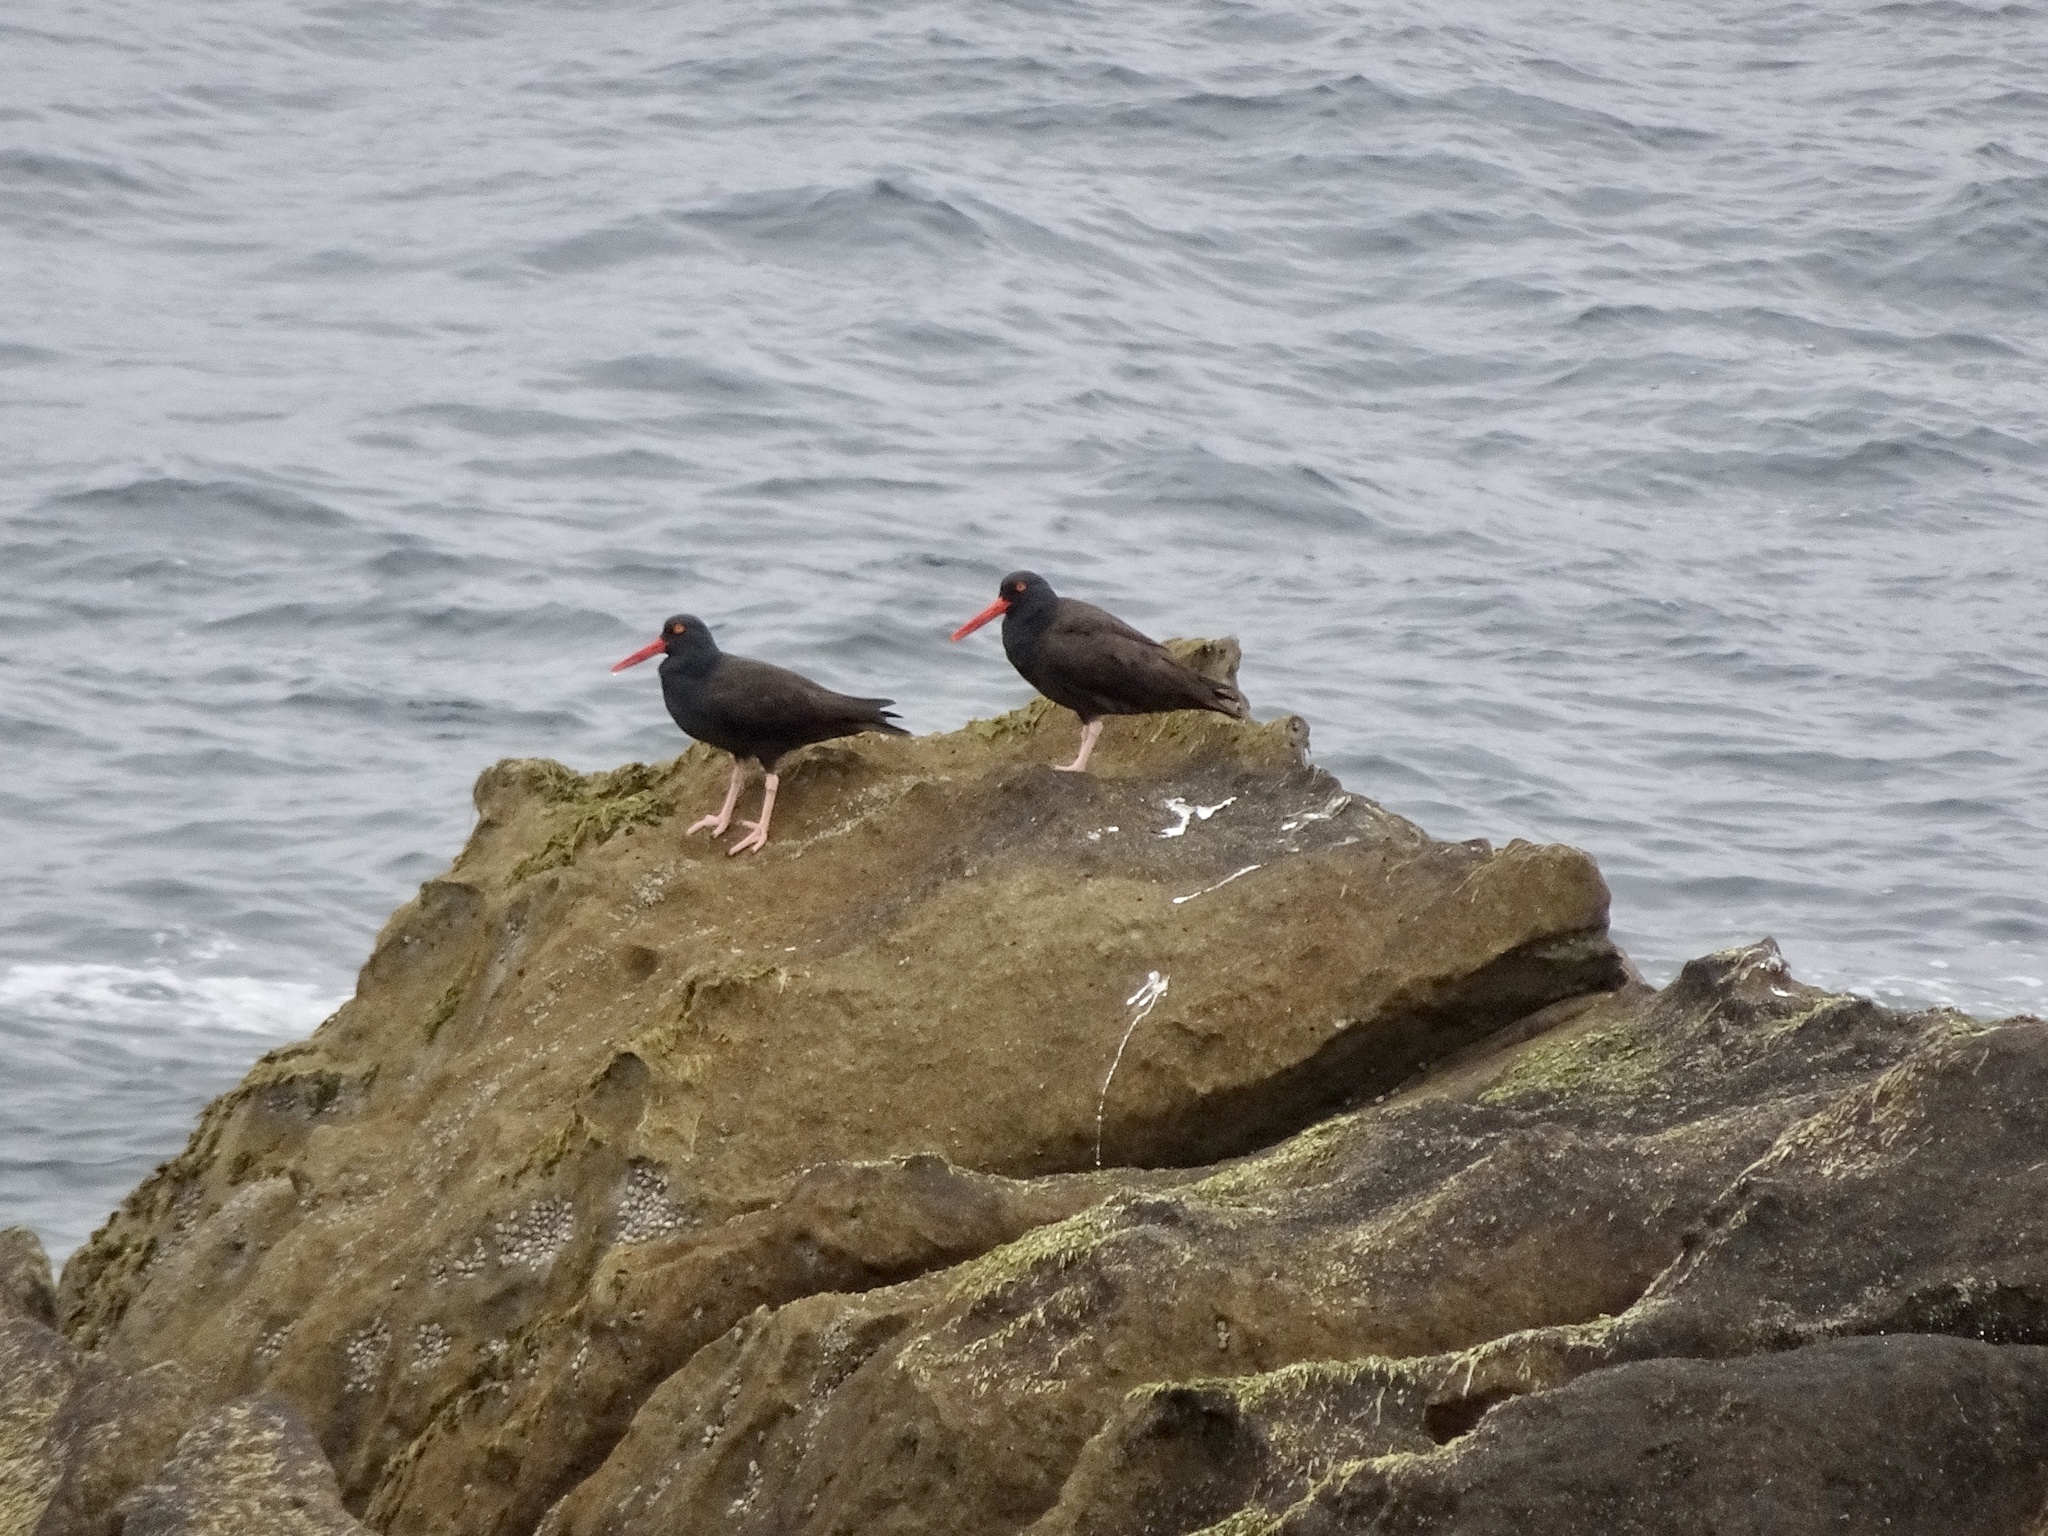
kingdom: Animalia
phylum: Chordata
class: Aves
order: Charadriiformes
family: Haematopodidae
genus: Haematopus
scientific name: Haematopus bachmani
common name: Black oystercatcher
